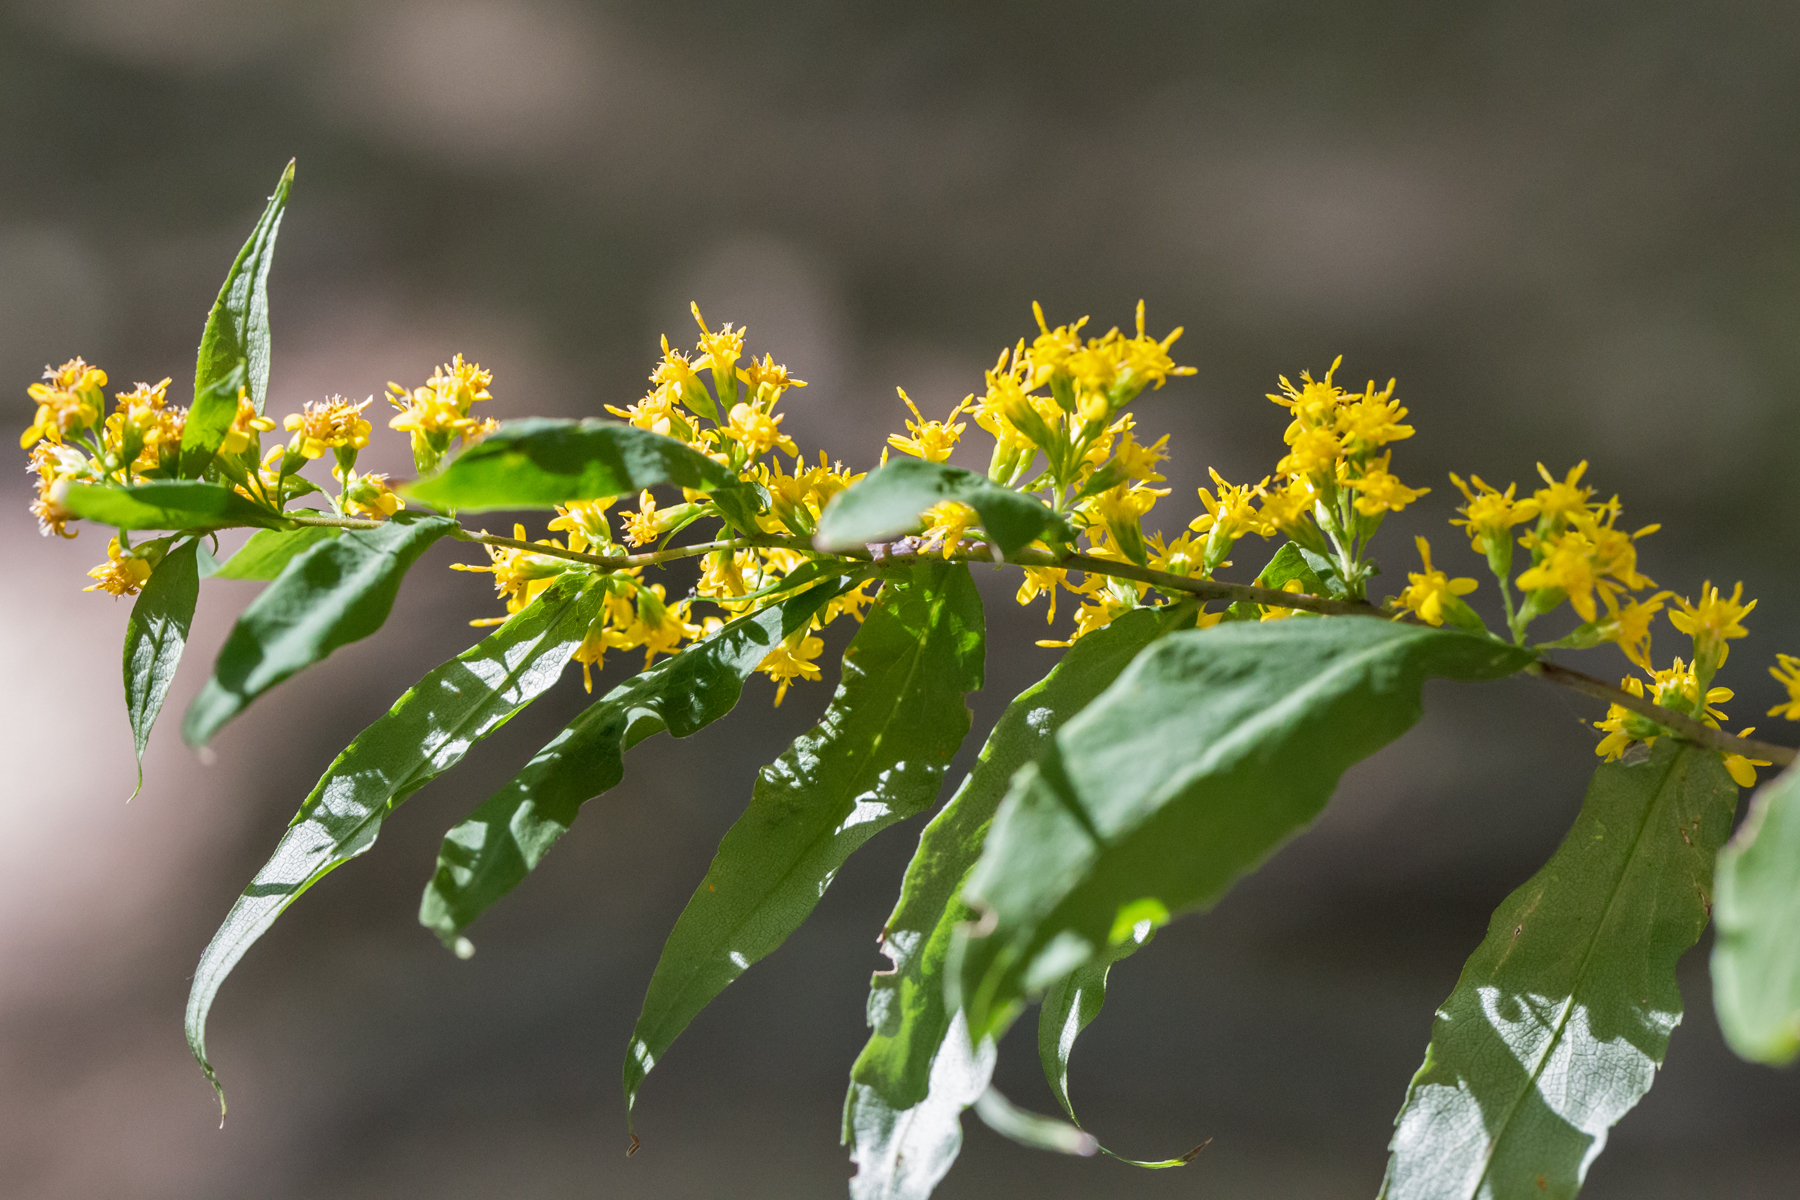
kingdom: Plantae
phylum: Tracheophyta
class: Magnoliopsida
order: Asterales
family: Asteraceae
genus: Solidago
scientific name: Solidago caesia
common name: Woodland goldenrod
